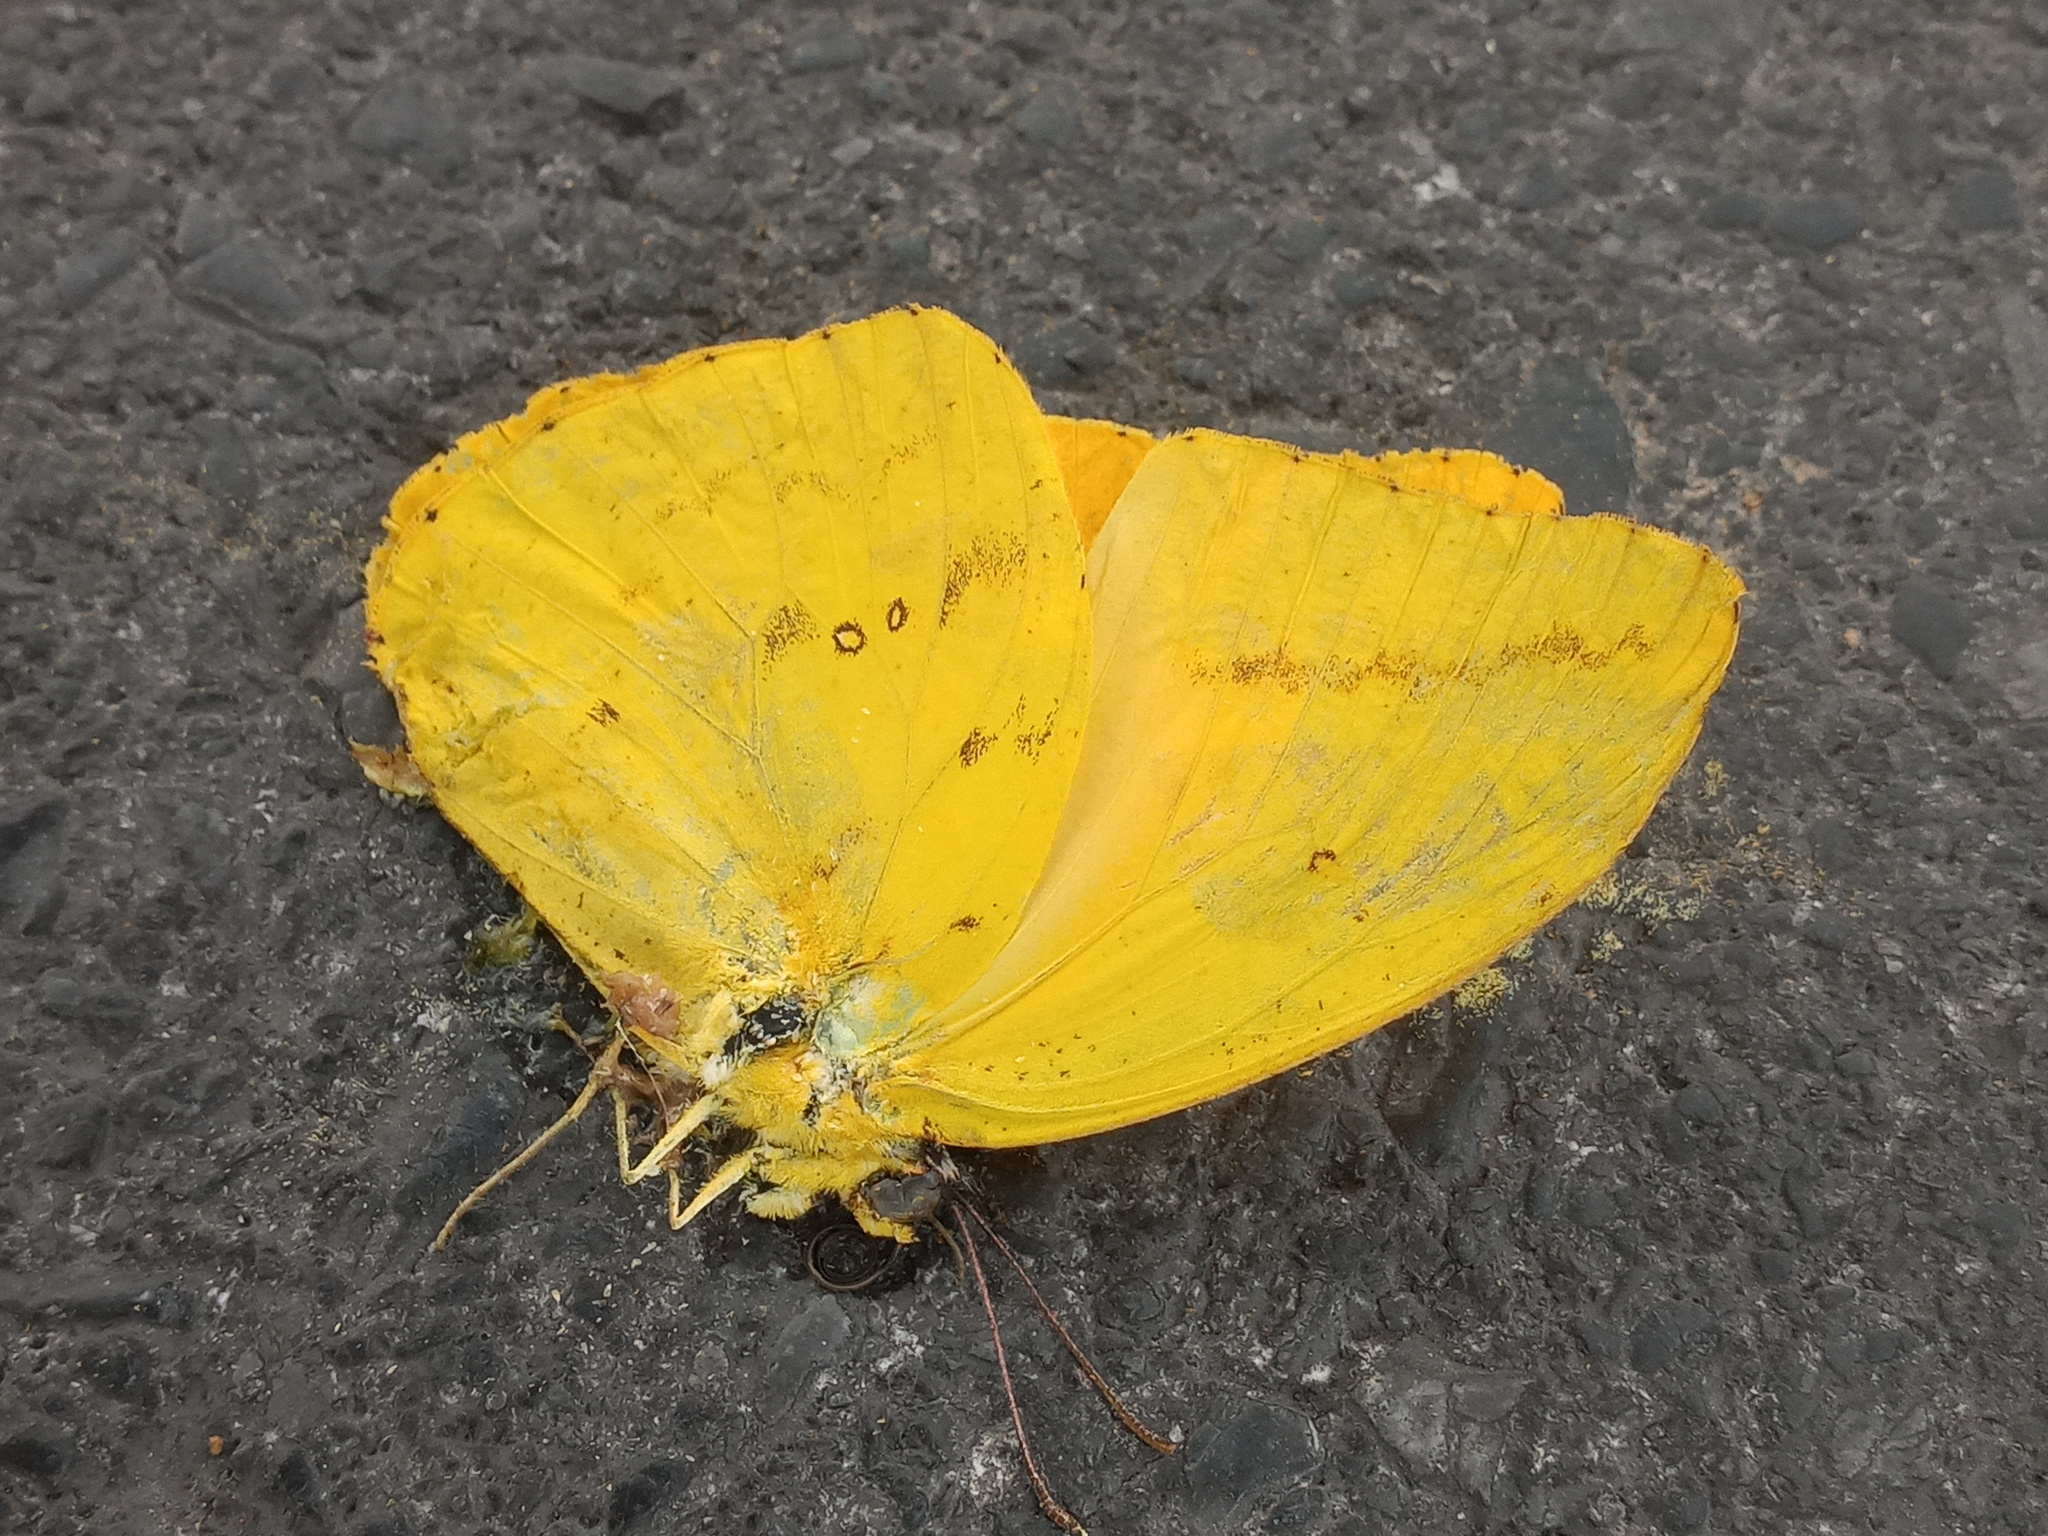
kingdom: Animalia
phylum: Arthropoda
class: Insecta
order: Lepidoptera
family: Pieridae
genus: Phoebis
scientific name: Phoebis agarithe
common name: Large orange sulphur
